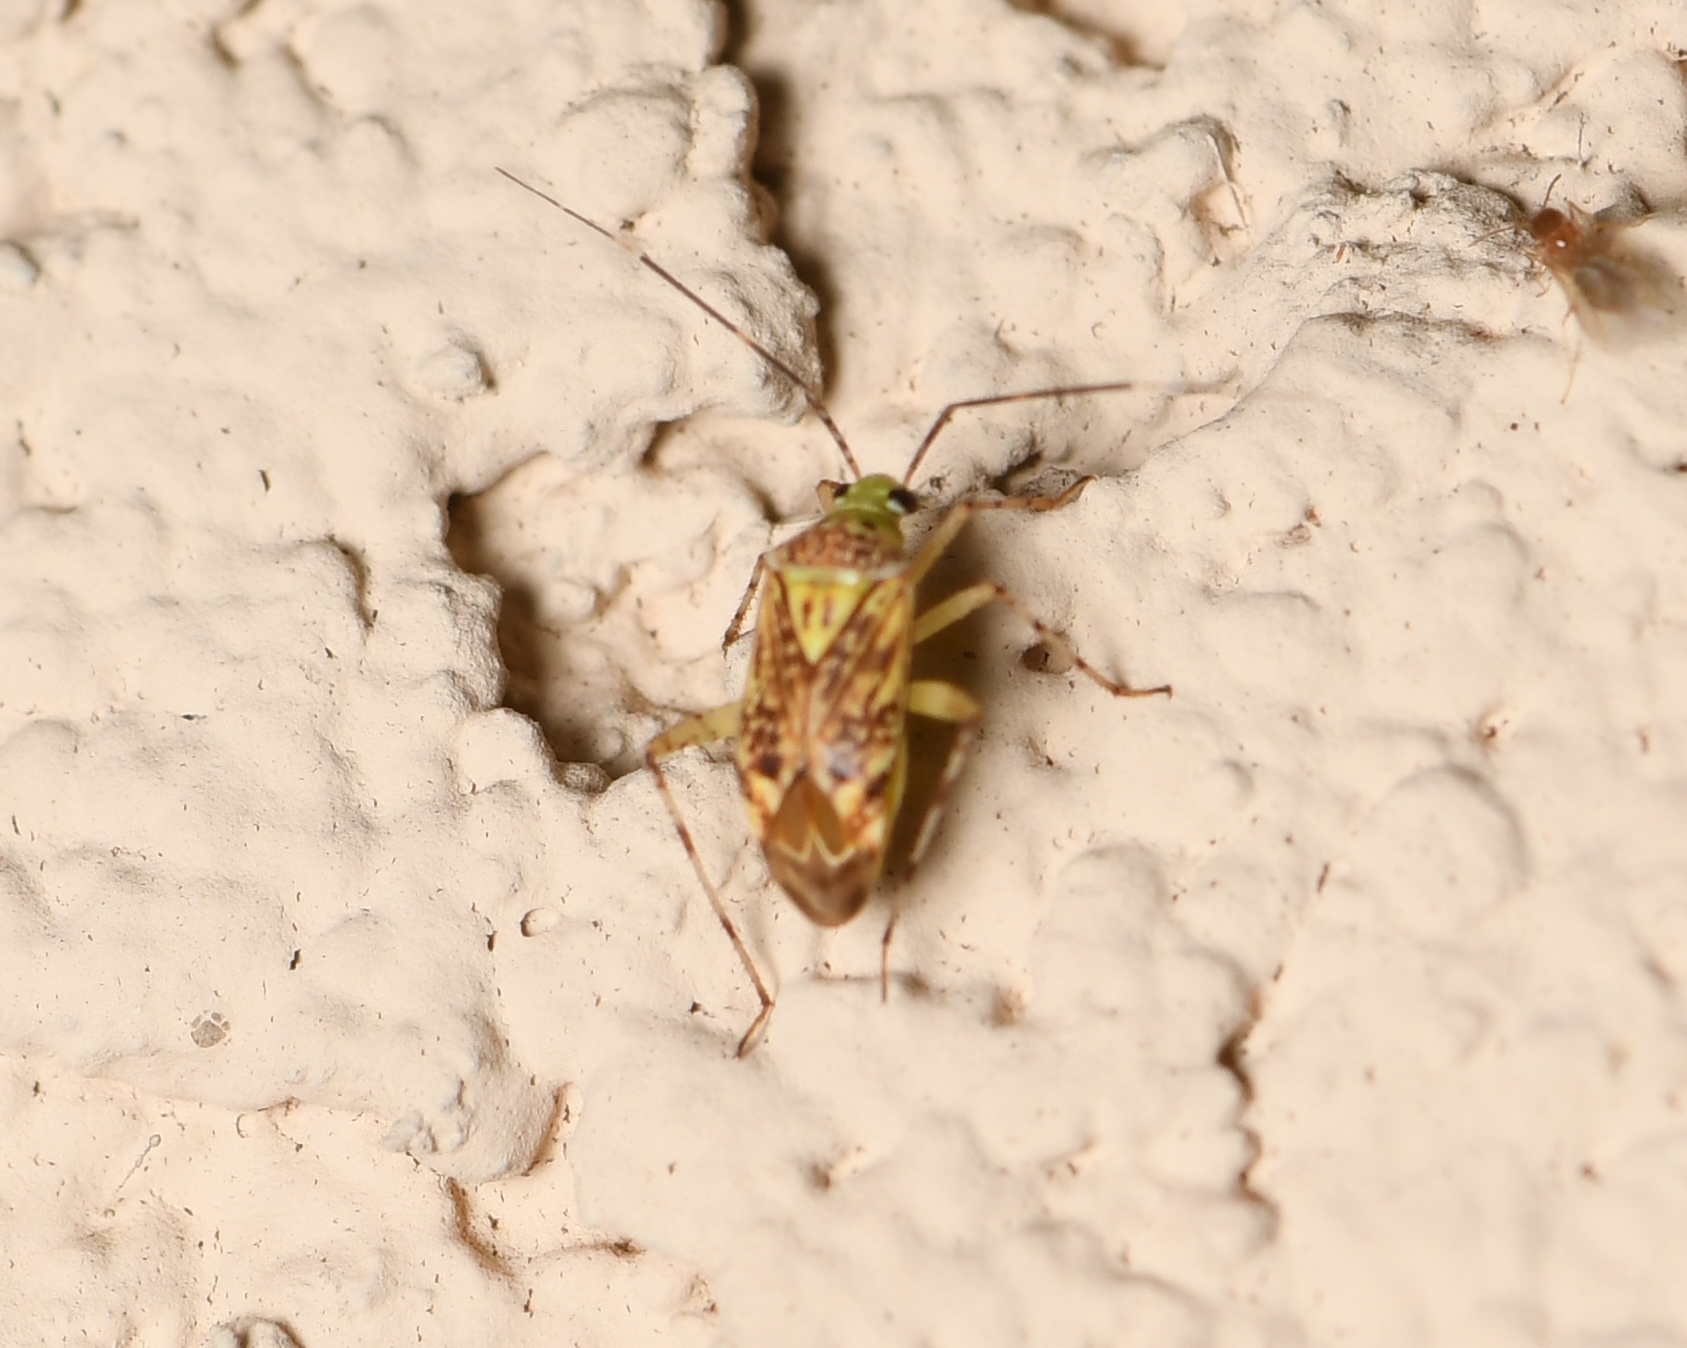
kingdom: Animalia
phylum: Arthropoda
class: Insecta
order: Hemiptera
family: Miridae
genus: Taedia
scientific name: Taedia marmorata
